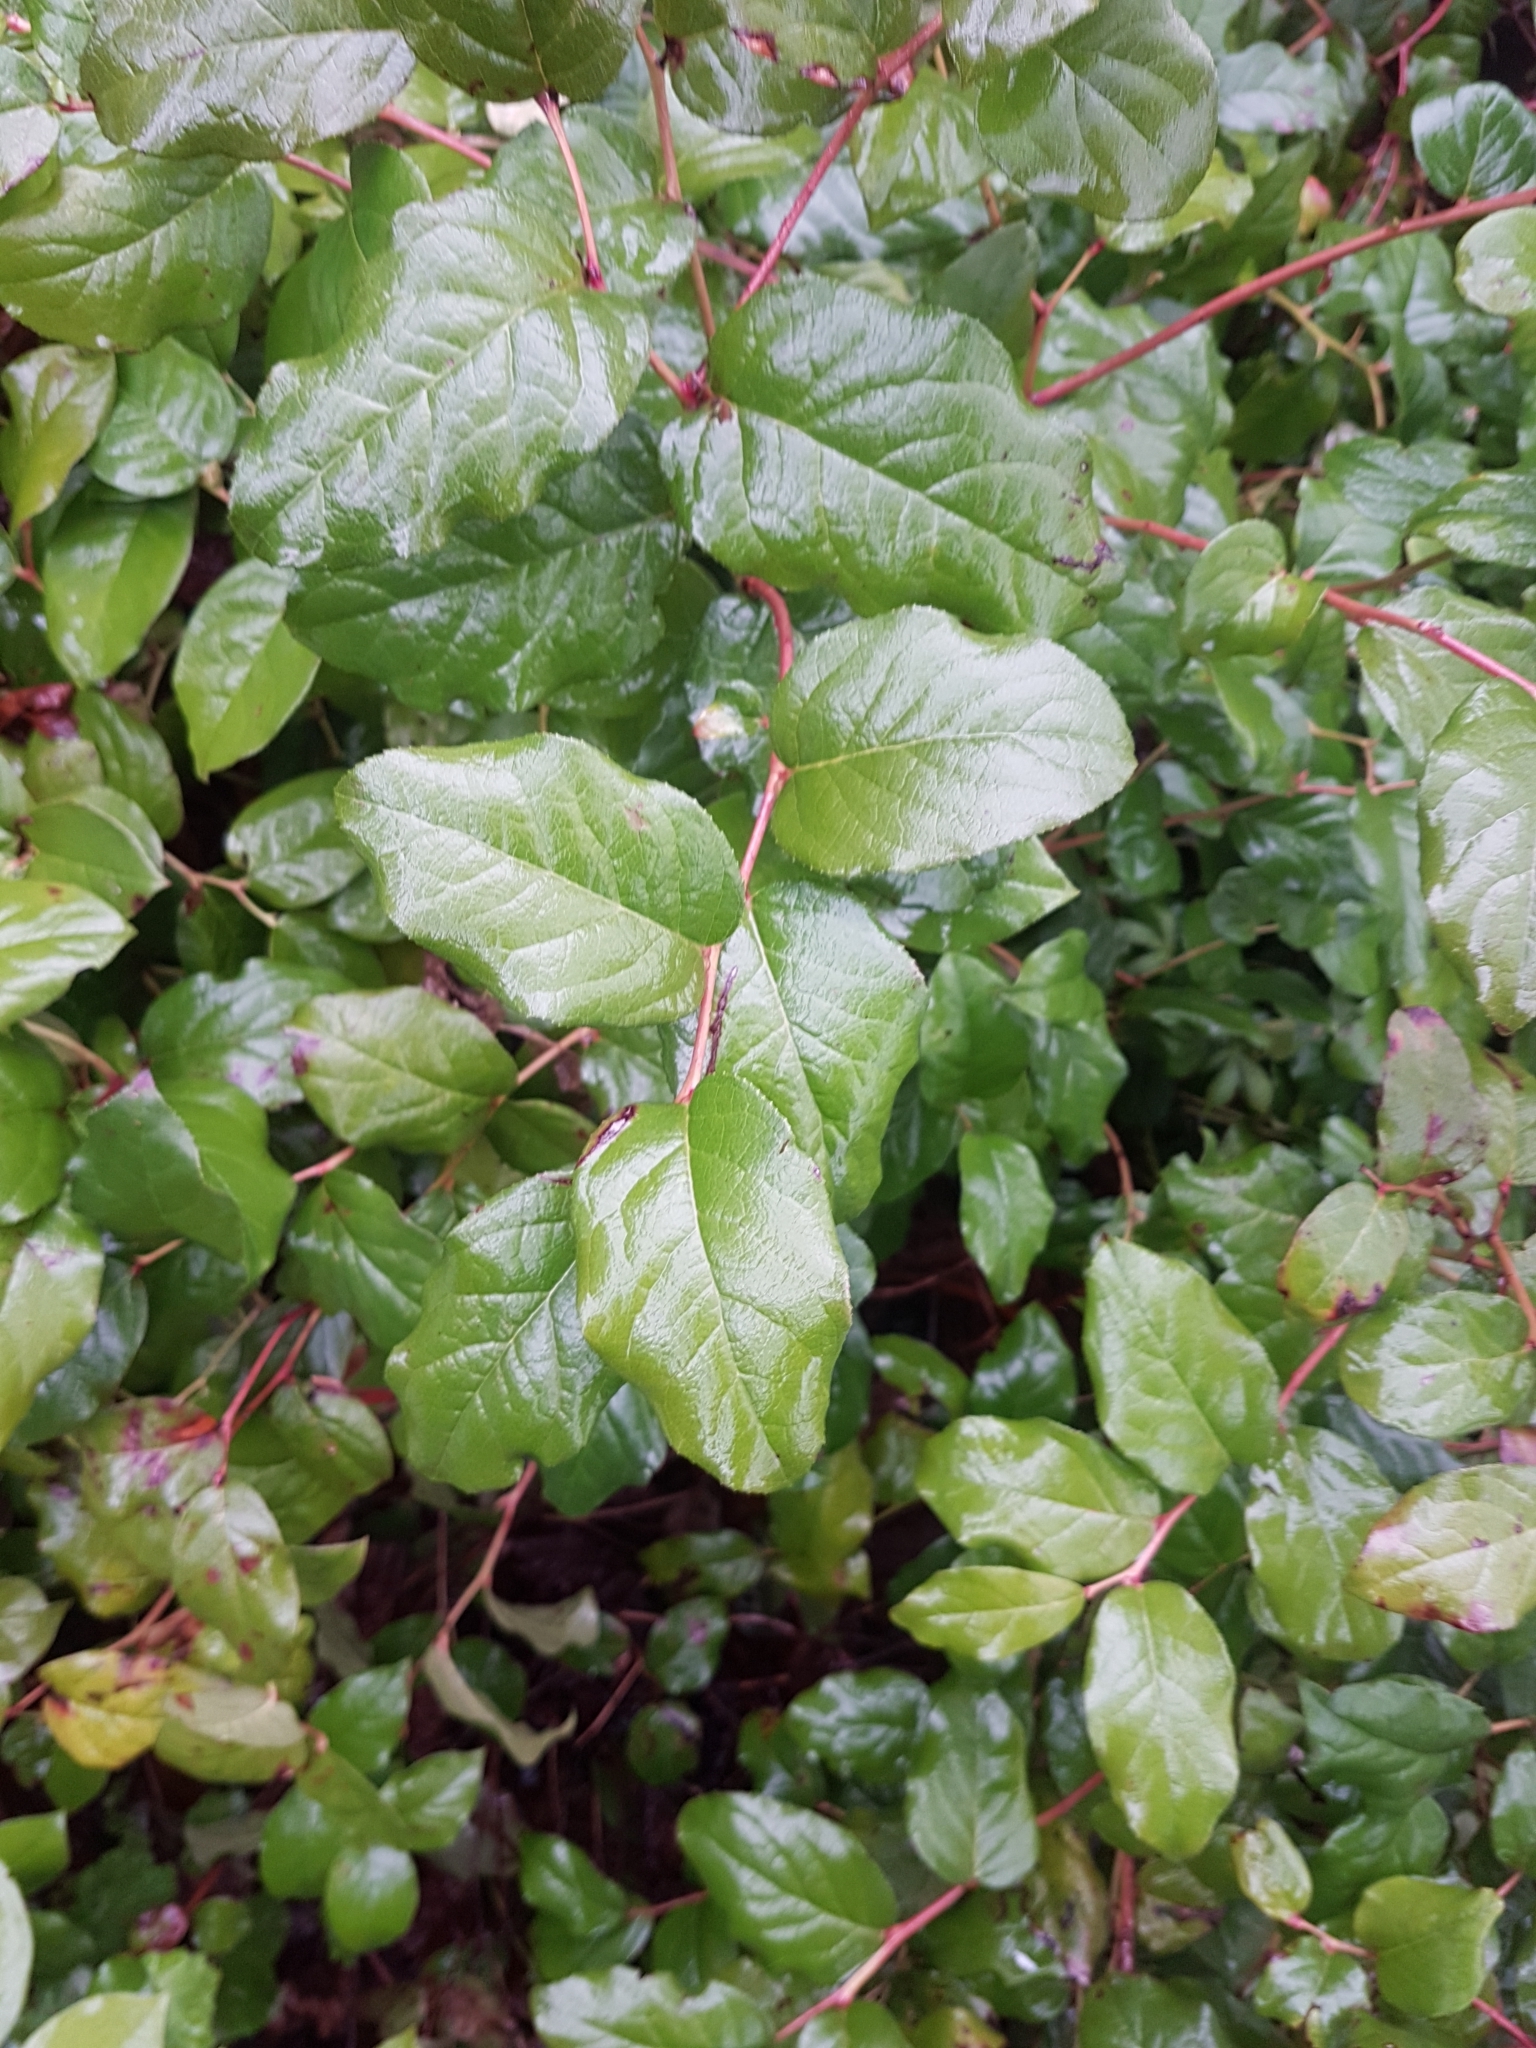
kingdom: Plantae
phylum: Tracheophyta
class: Magnoliopsida
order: Ericales
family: Ericaceae
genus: Gaultheria
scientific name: Gaultheria shallon
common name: Shallon
